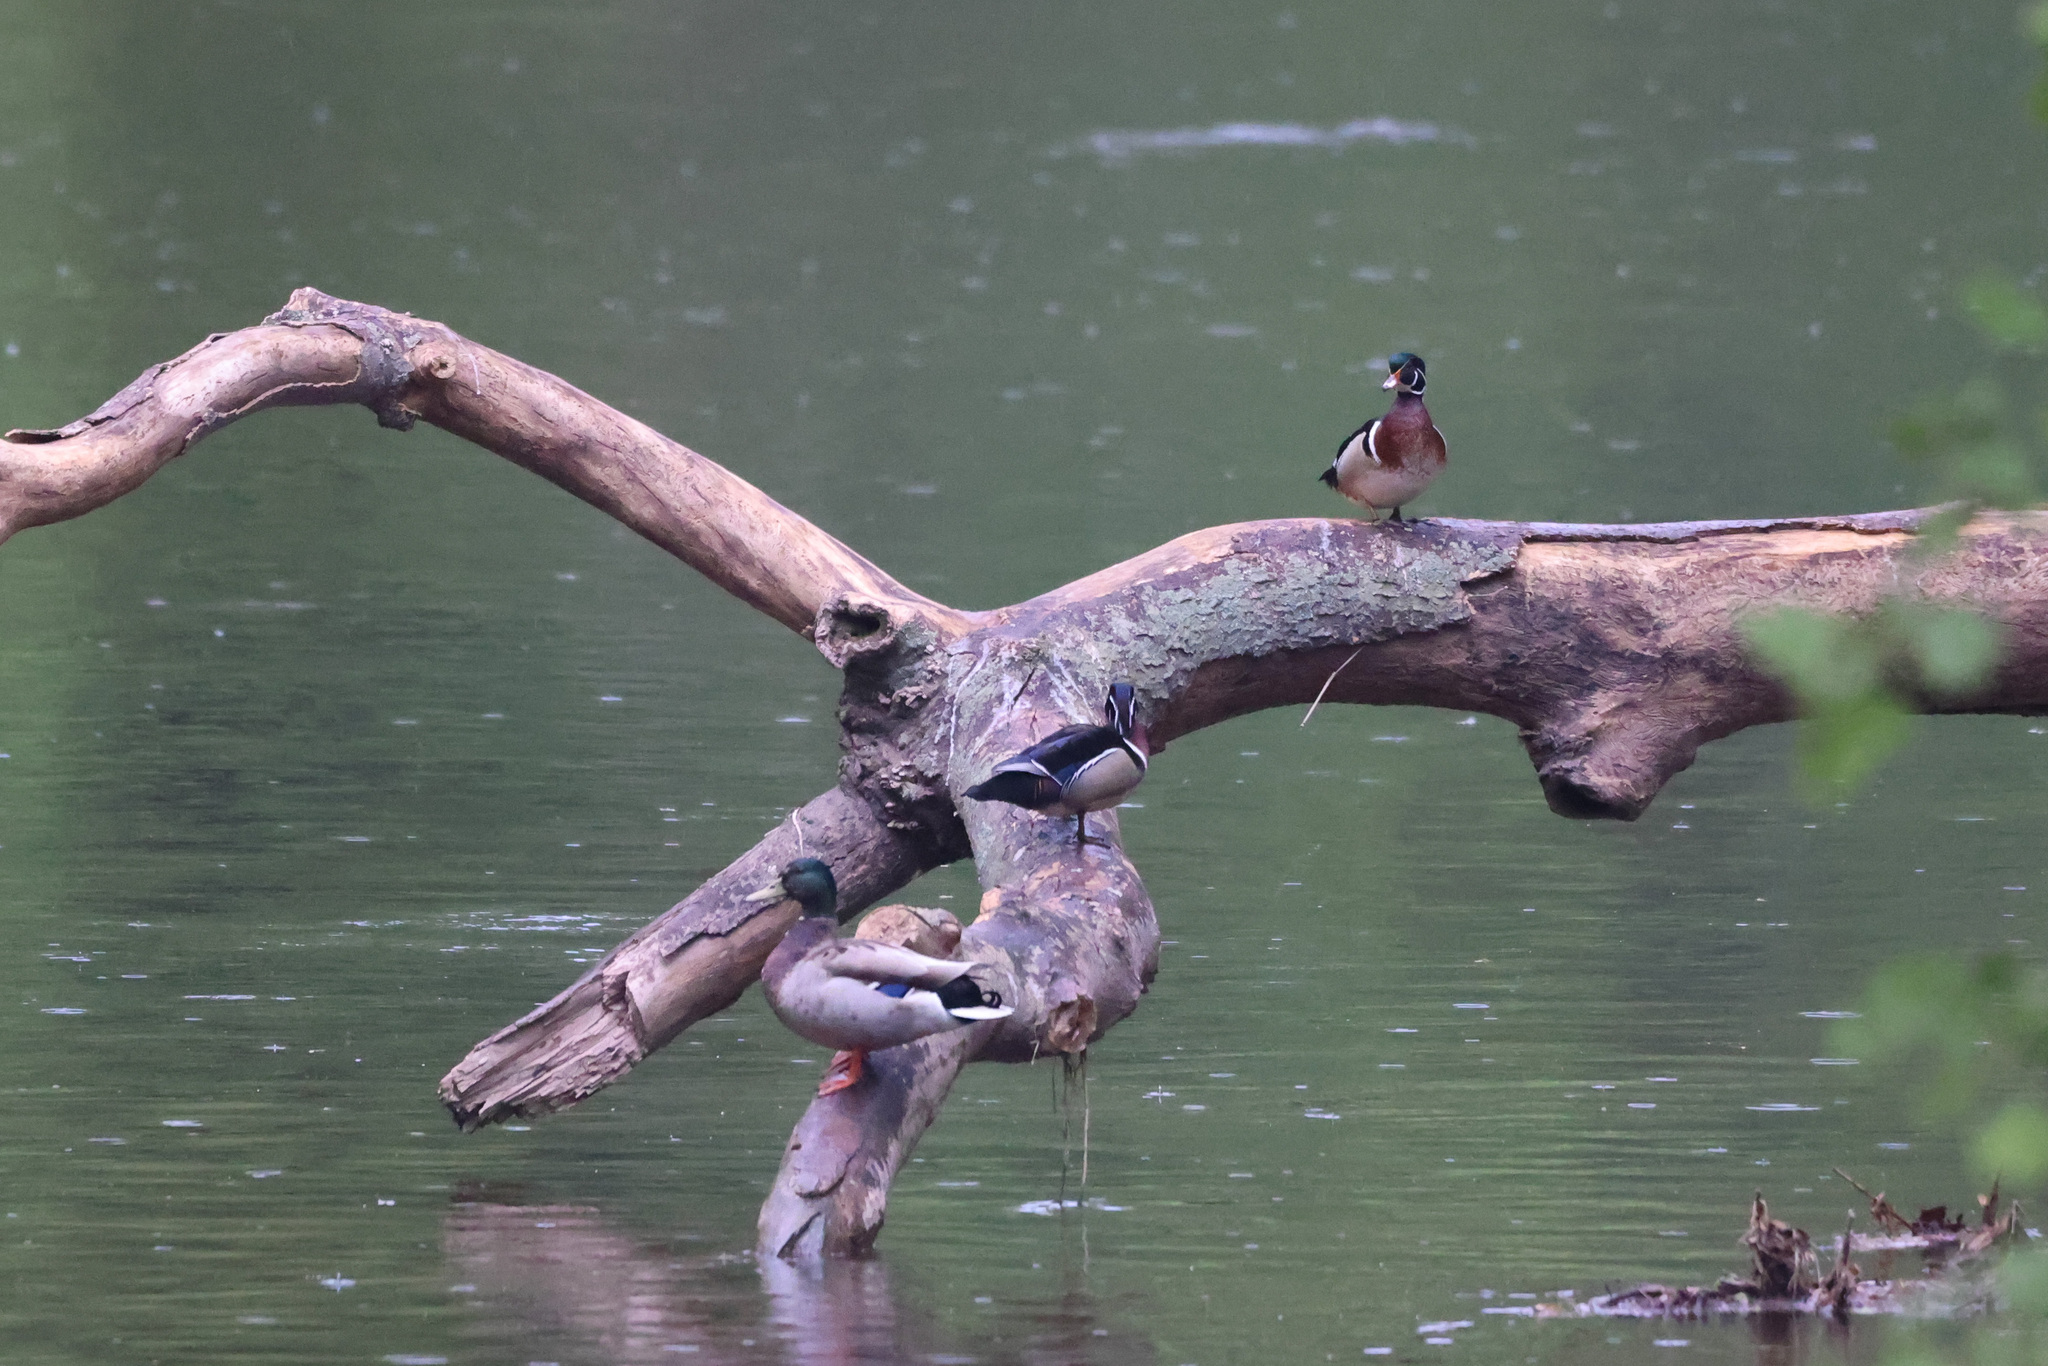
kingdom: Animalia
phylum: Chordata
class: Aves
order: Anseriformes
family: Anatidae
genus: Aix
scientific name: Aix sponsa
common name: Wood duck
